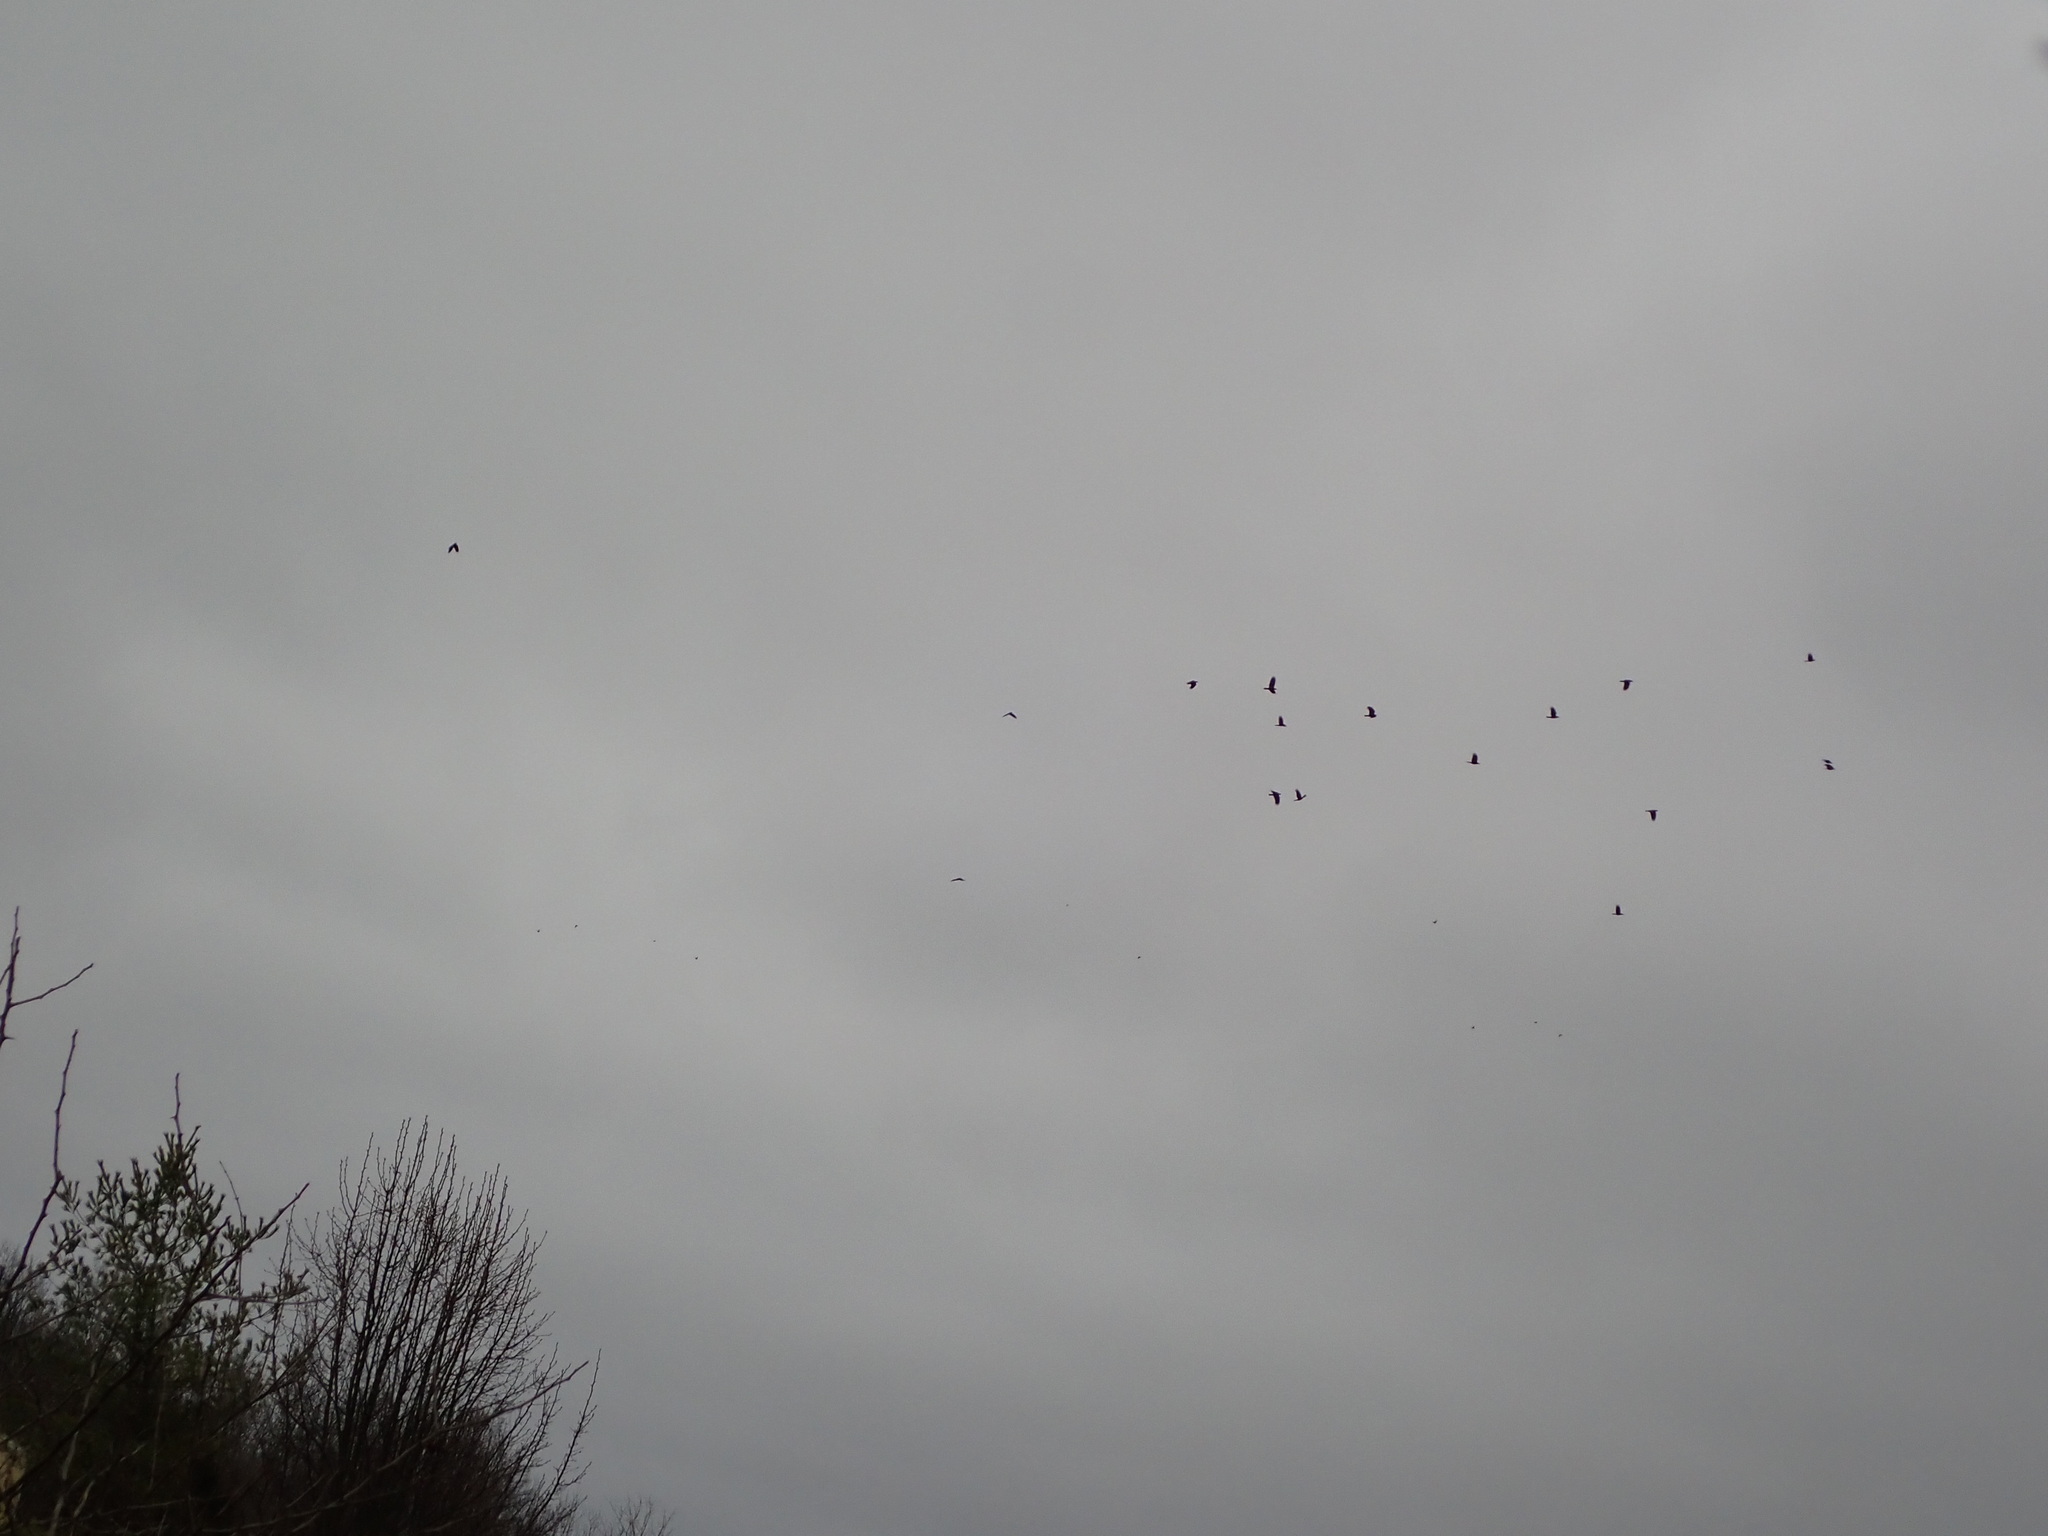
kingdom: Animalia
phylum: Chordata
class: Aves
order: Passeriformes
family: Corvidae
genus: Corvus
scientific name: Corvus brachyrhynchos
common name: American crow
